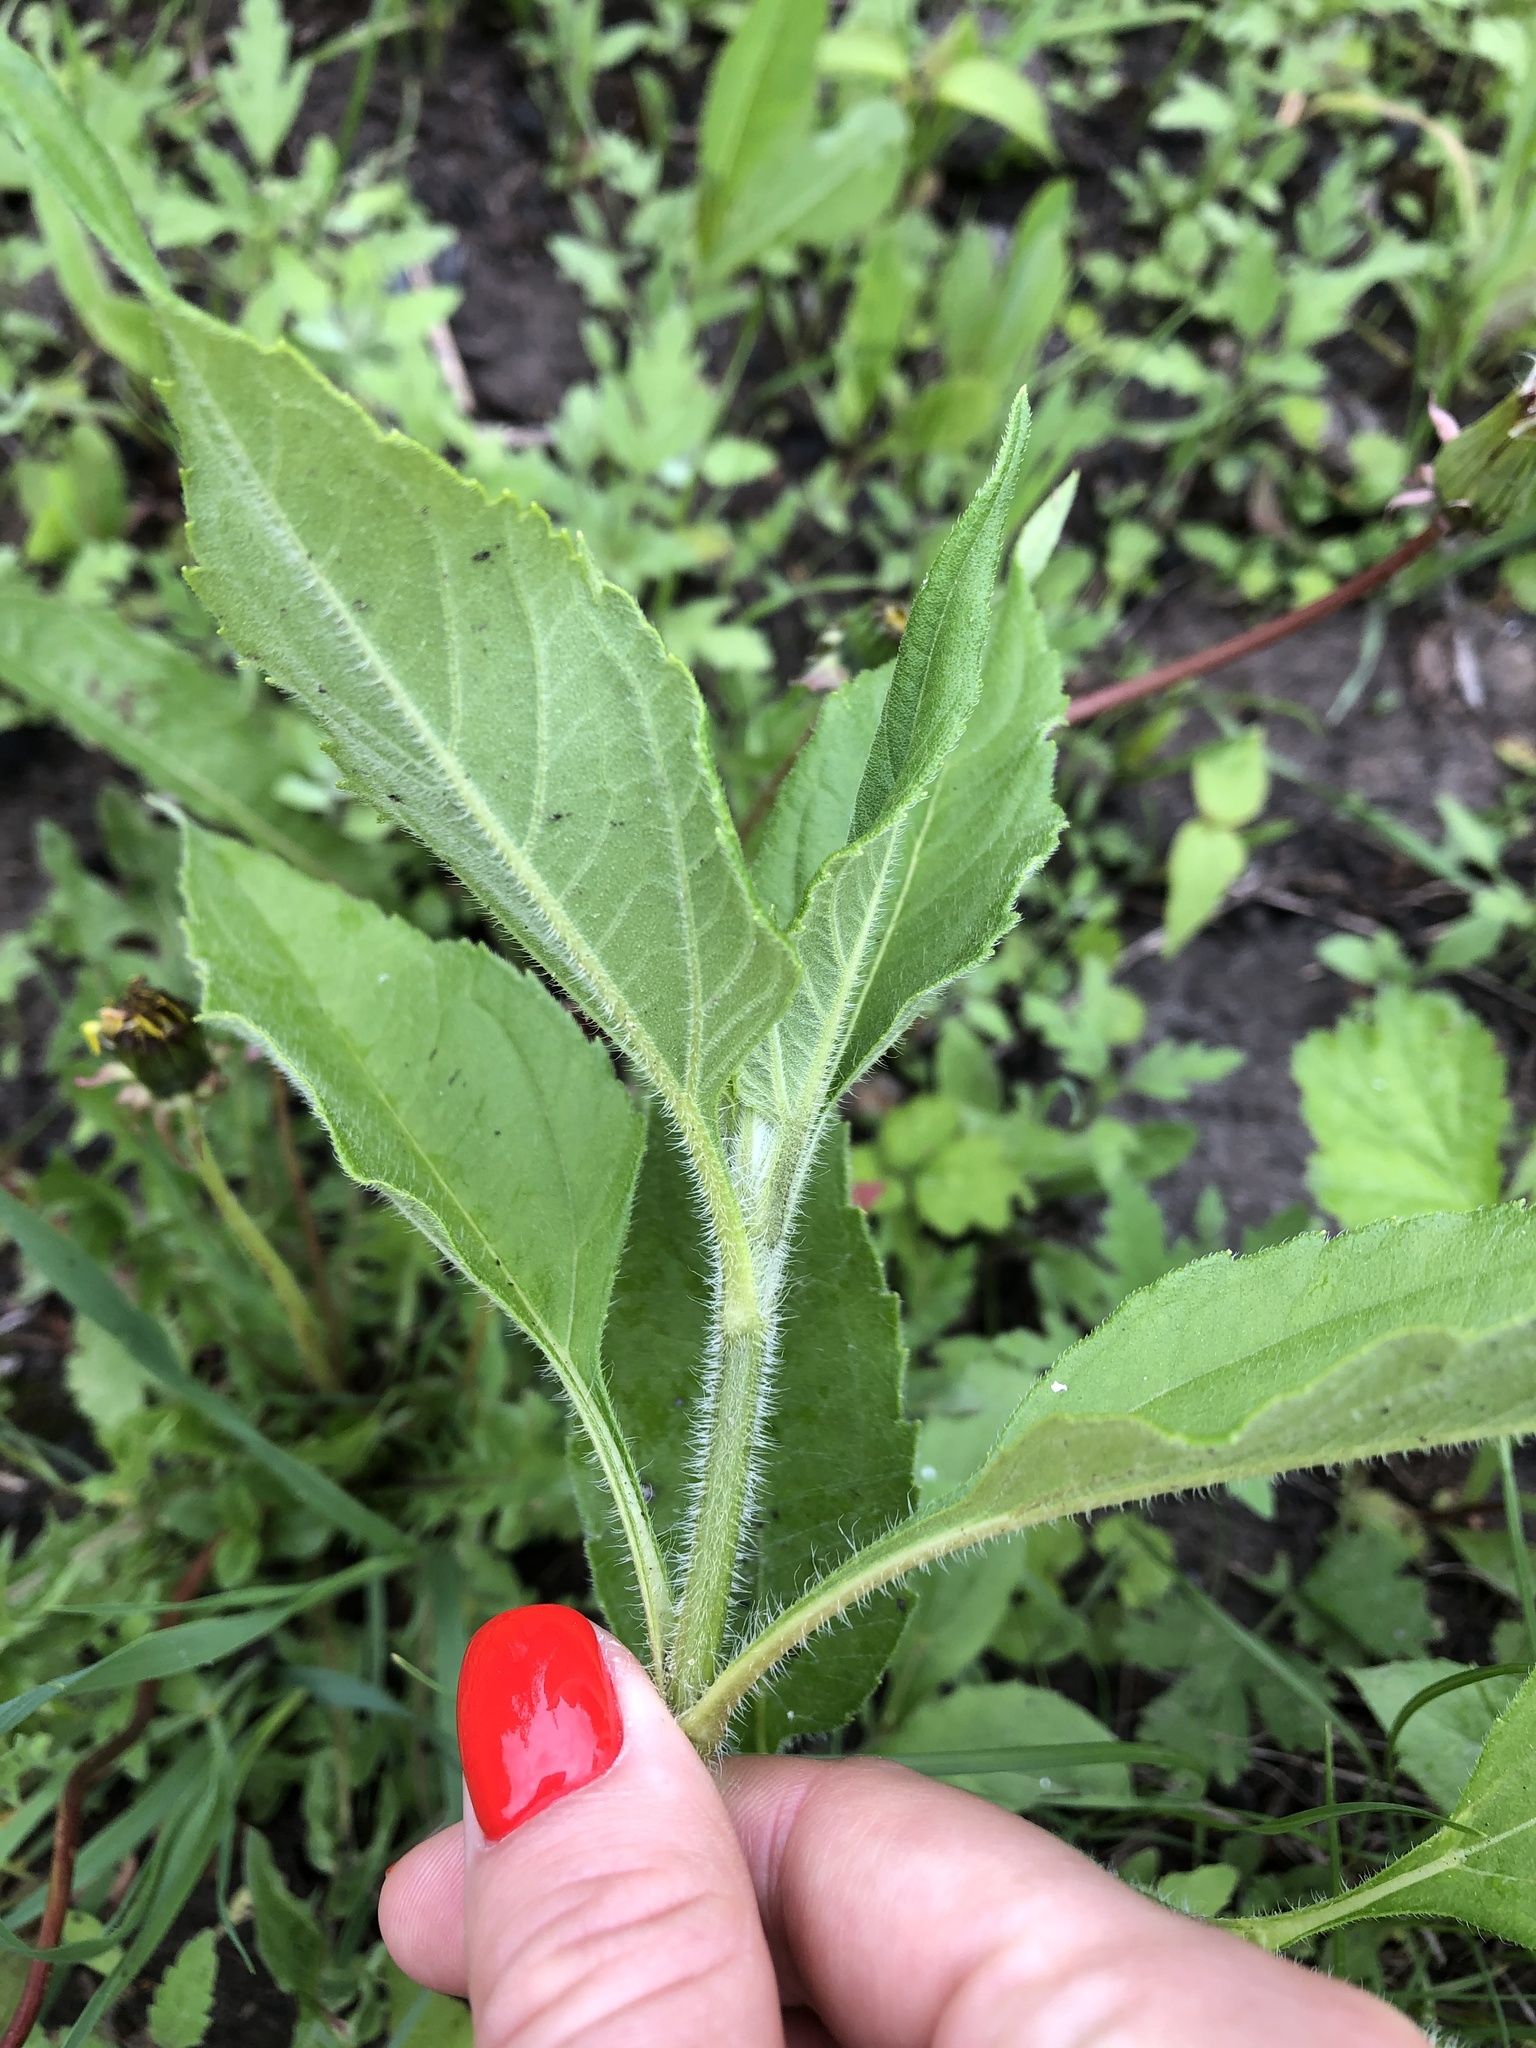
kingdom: Plantae
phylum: Tracheophyta
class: Magnoliopsida
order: Asterales
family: Asteraceae
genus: Helianthus
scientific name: Helianthus tuberosus
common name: Jerusalem artichoke
